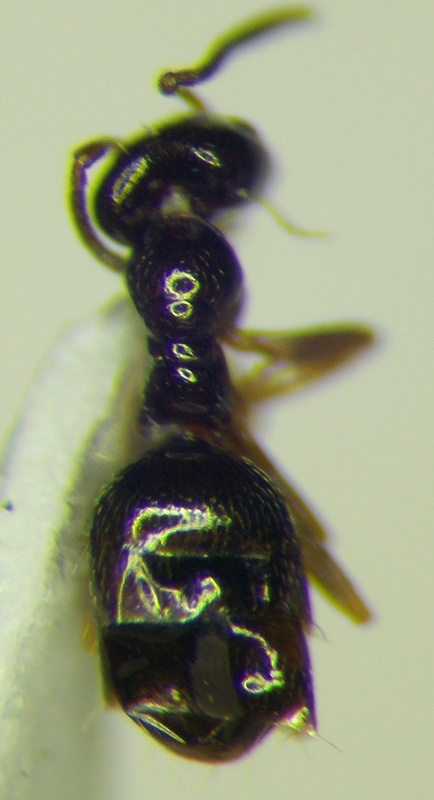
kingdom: Animalia
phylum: Arthropoda
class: Insecta
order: Hymenoptera
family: Formicidae
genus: Plagiolepis
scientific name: Plagiolepis pallescens
